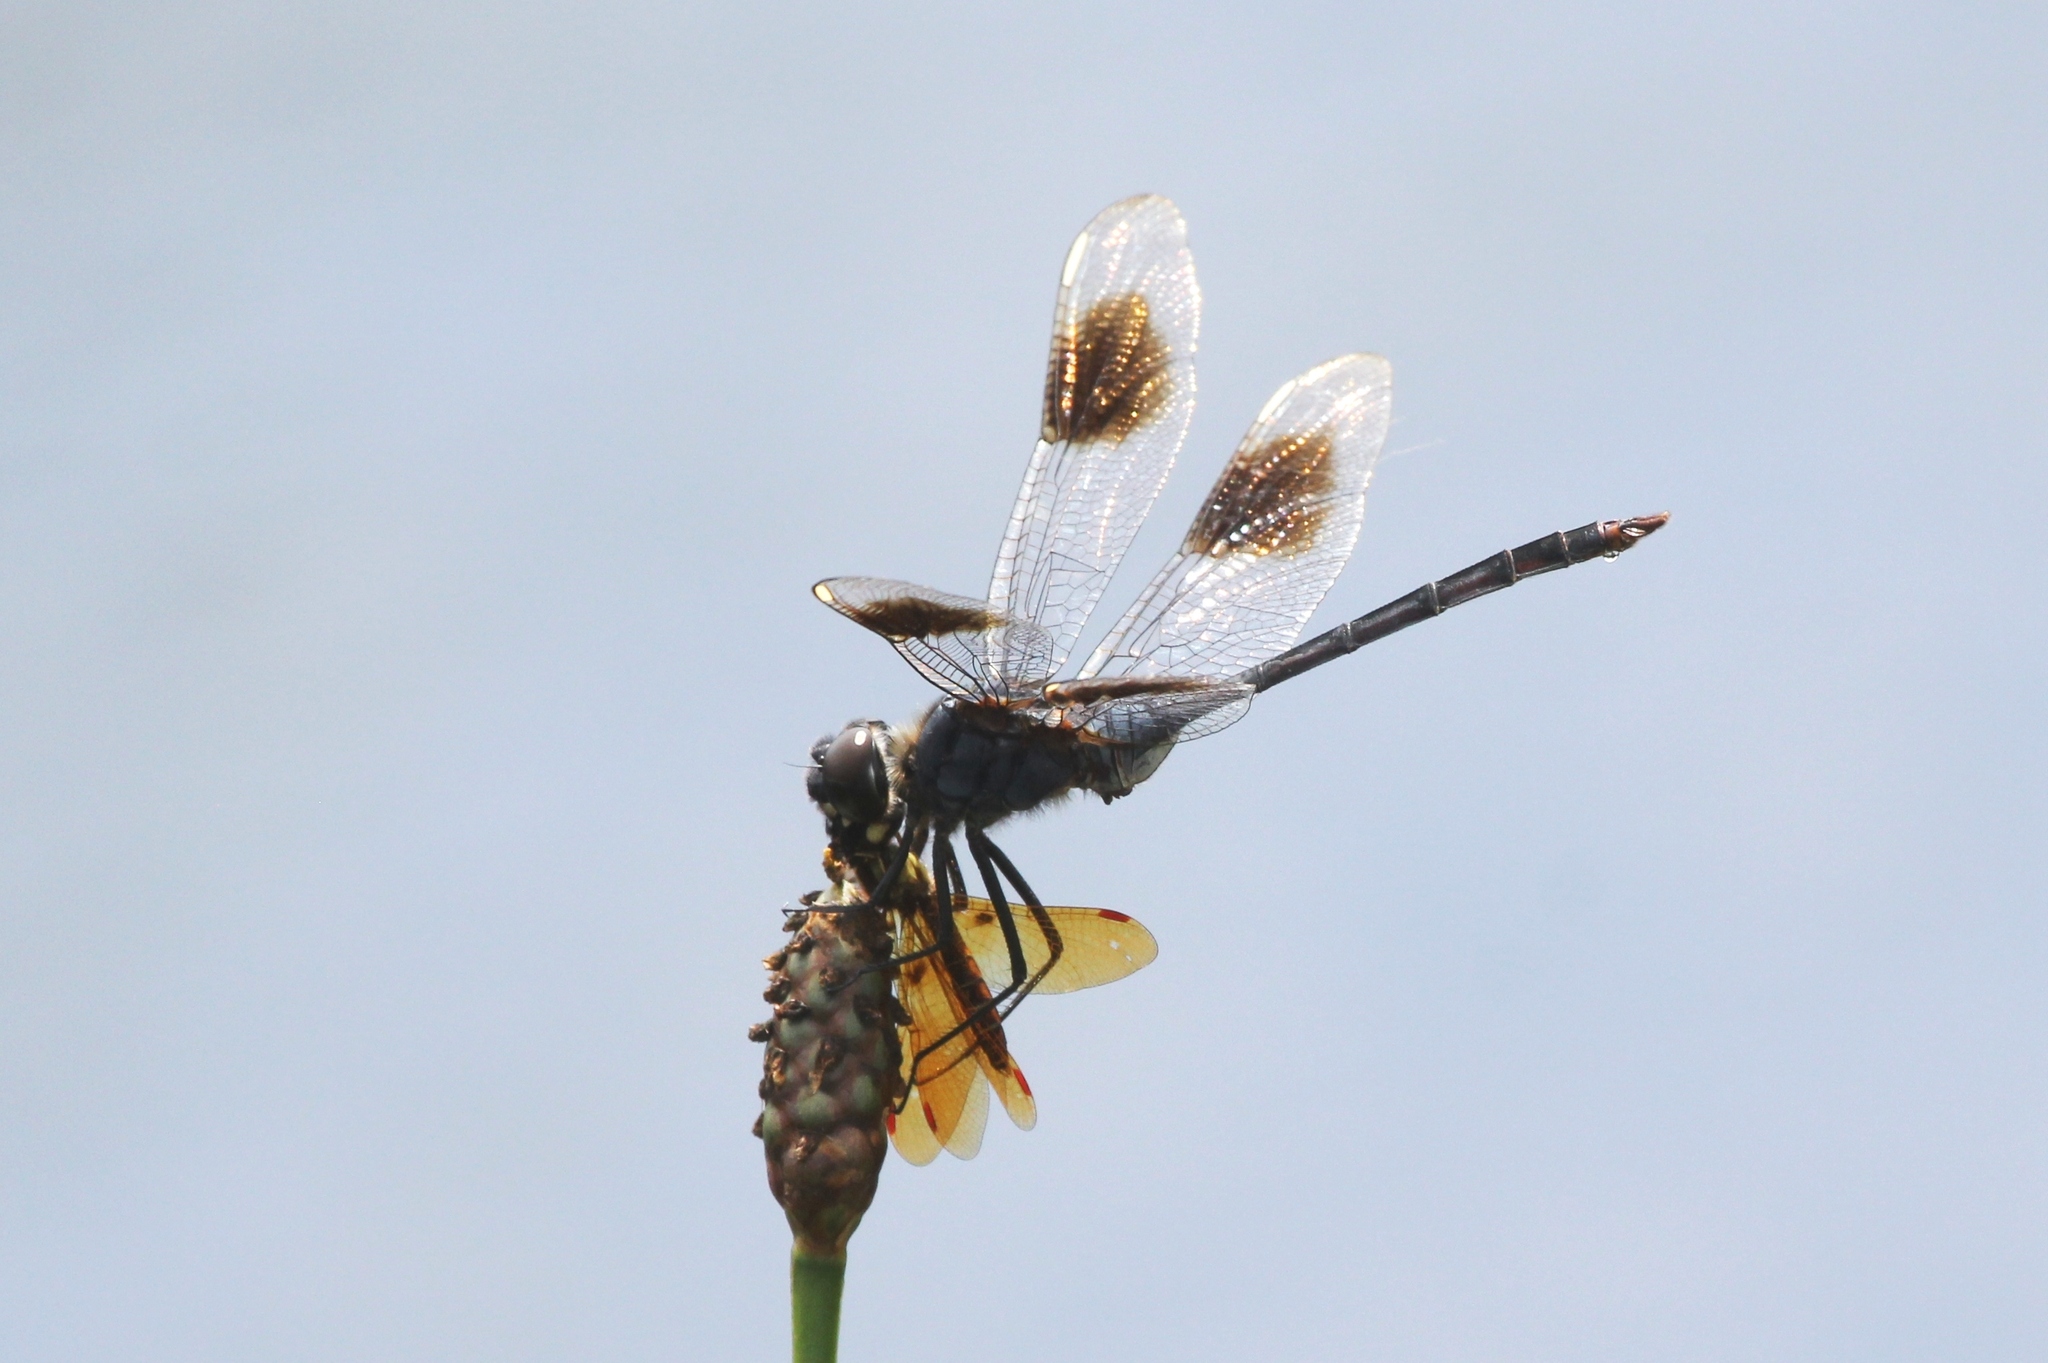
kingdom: Animalia
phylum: Arthropoda
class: Insecta
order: Odonata
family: Libellulidae
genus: Brachymesia
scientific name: Brachymesia gravida
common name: Four-spotted pennant
